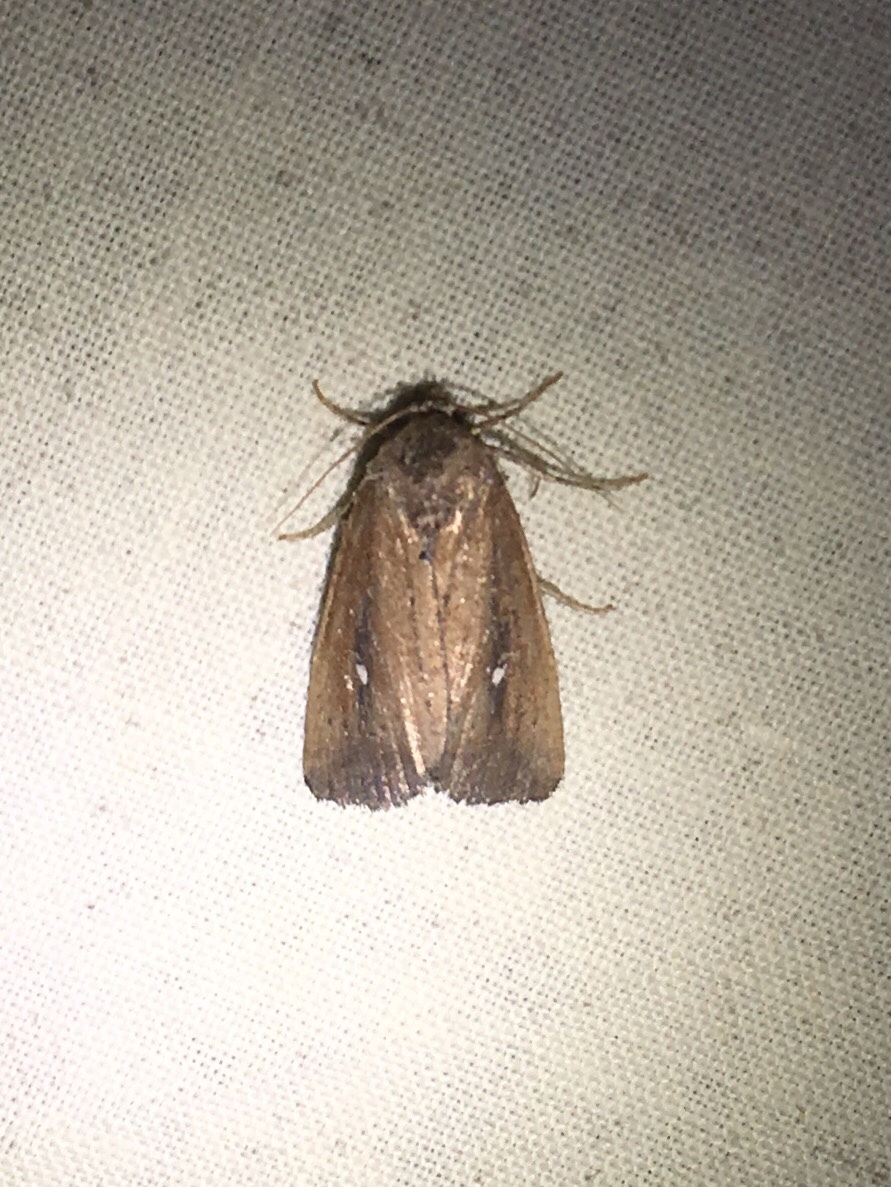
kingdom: Animalia
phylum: Arthropoda
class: Insecta
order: Lepidoptera
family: Noctuidae
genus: Condica
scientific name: Condica videns
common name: White-dotted groundling
